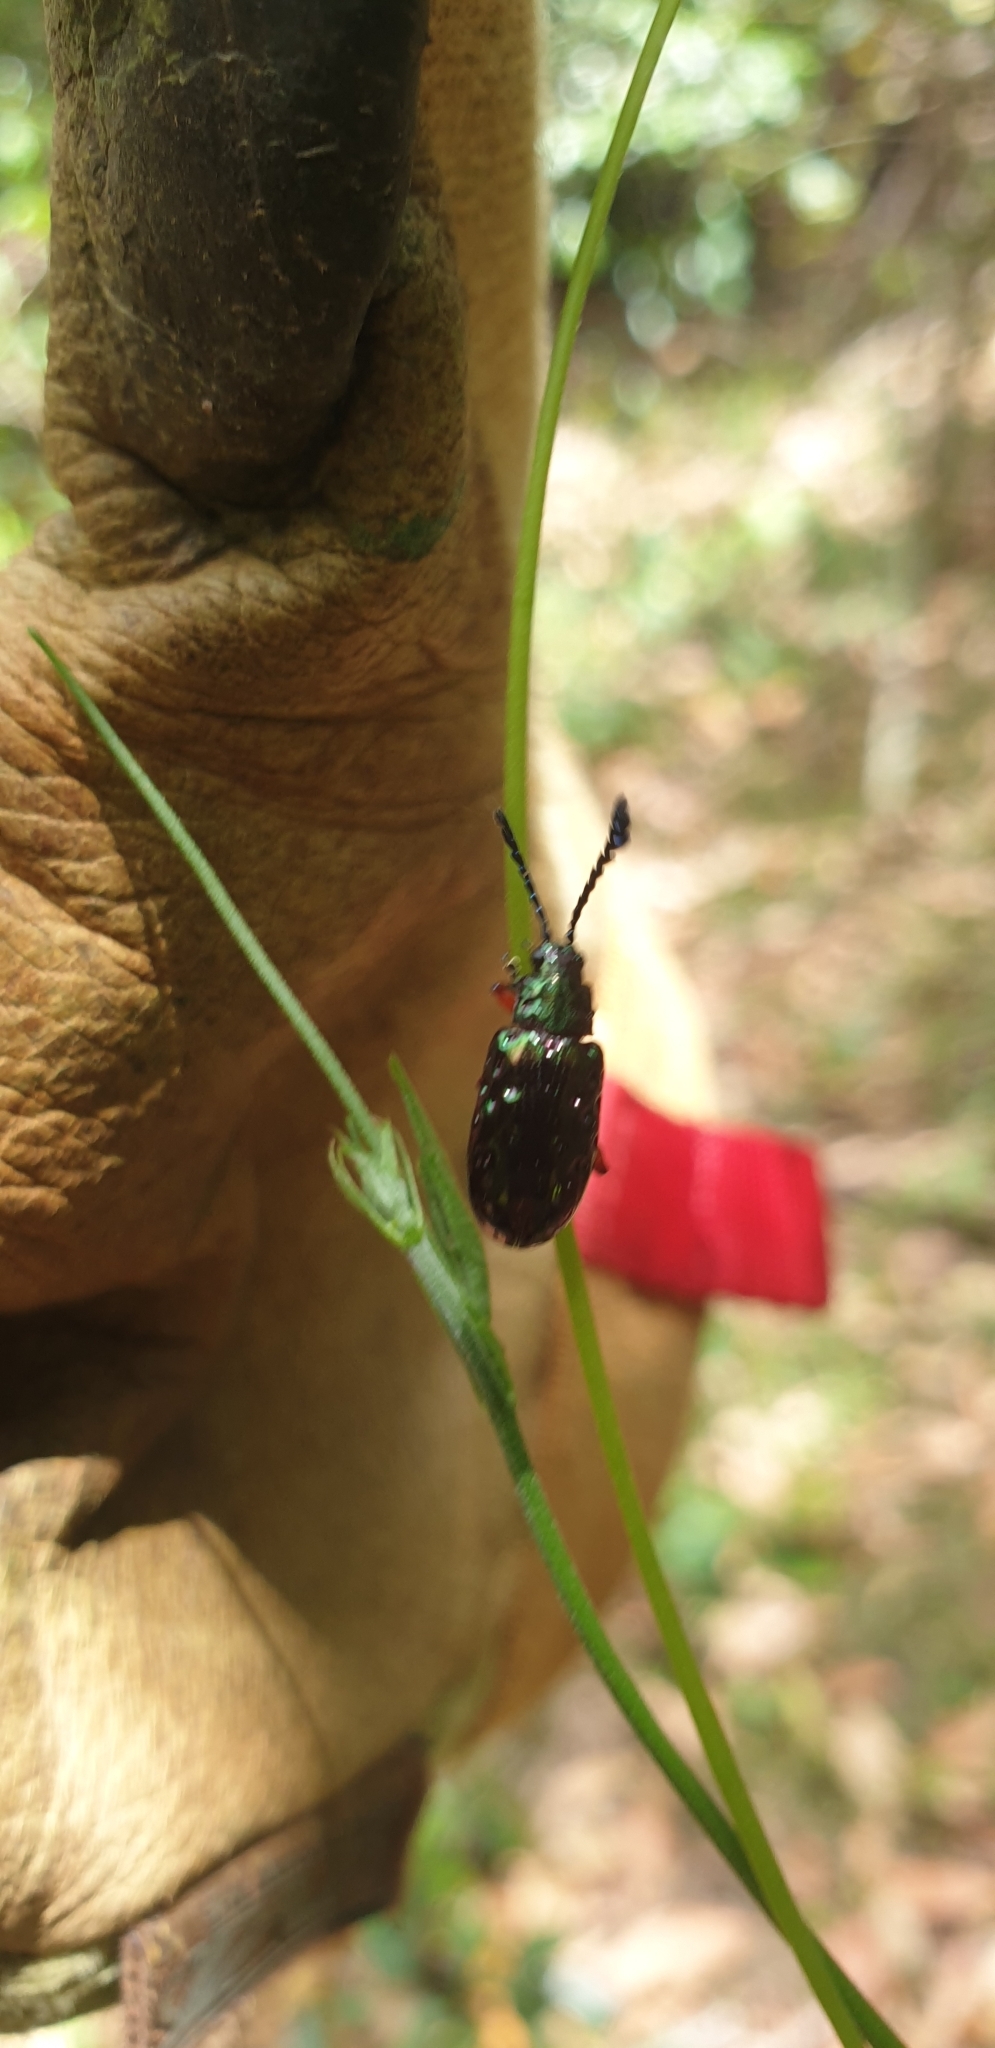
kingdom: Animalia
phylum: Arthropoda
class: Insecta
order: Coleoptera
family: Chrysomelidae
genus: Johannica
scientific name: Johannica gemellata
